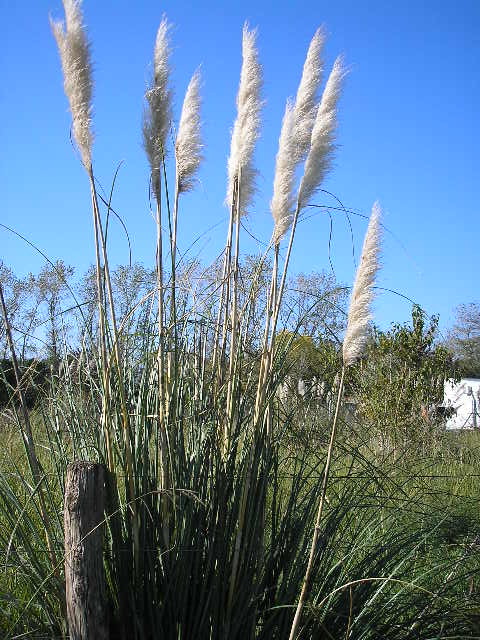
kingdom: Plantae
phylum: Tracheophyta
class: Liliopsida
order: Poales
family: Poaceae
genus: Cortaderia
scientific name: Cortaderia selloana
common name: Uruguayan pampas grass
